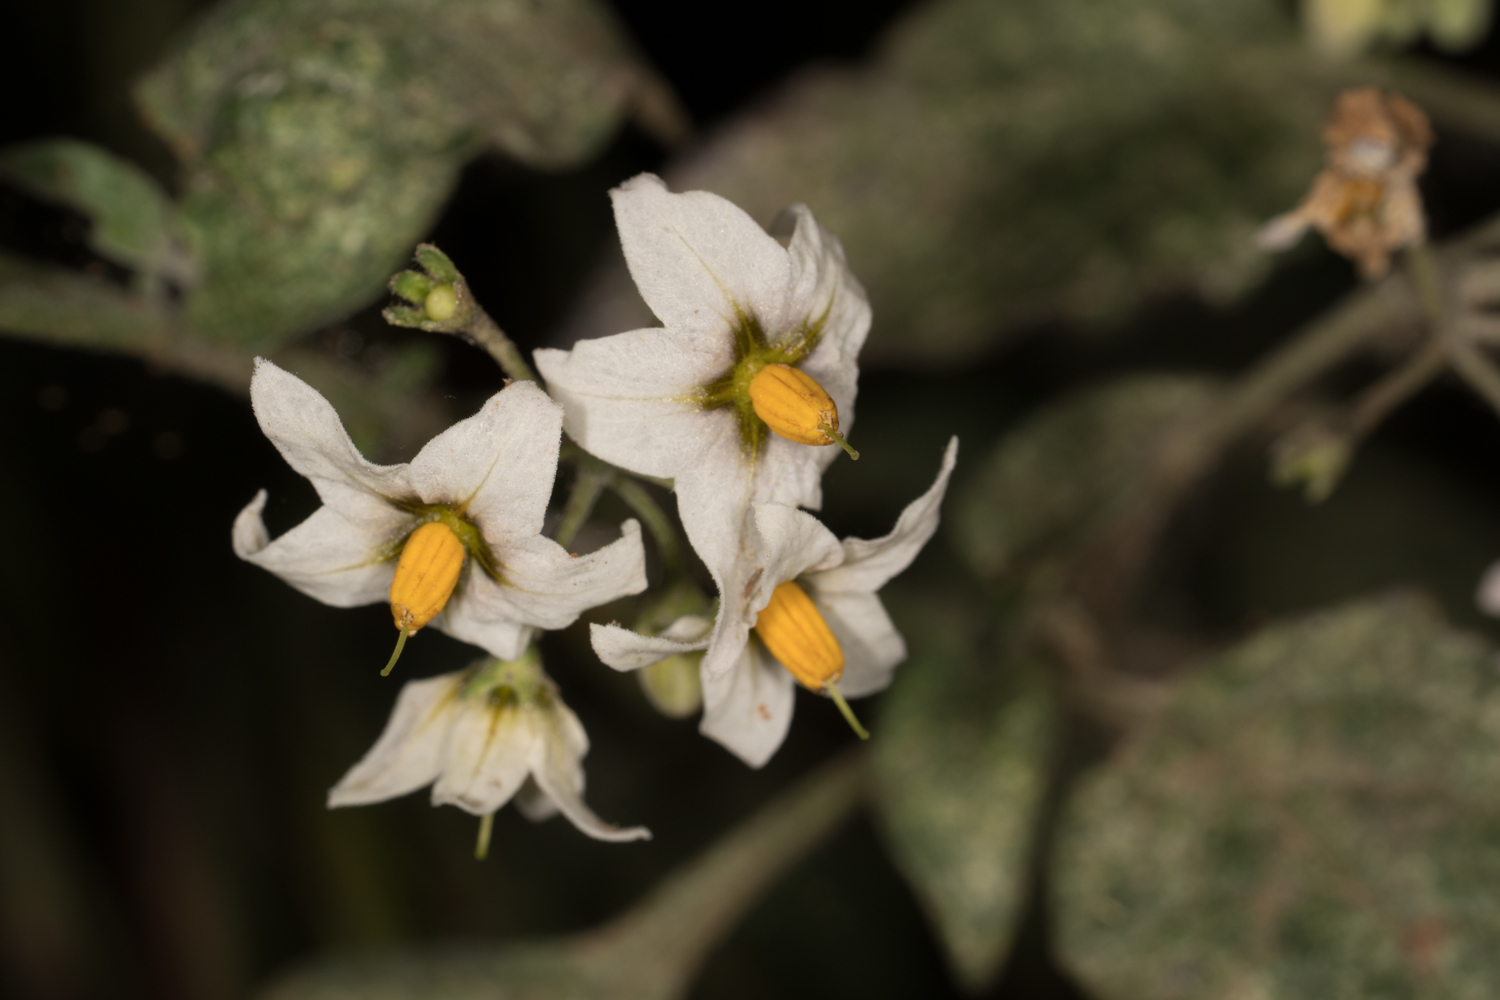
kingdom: Plantae
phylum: Tracheophyta
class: Magnoliopsida
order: Solanales
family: Solanaceae
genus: Solanum
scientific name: Solanum douglasii
